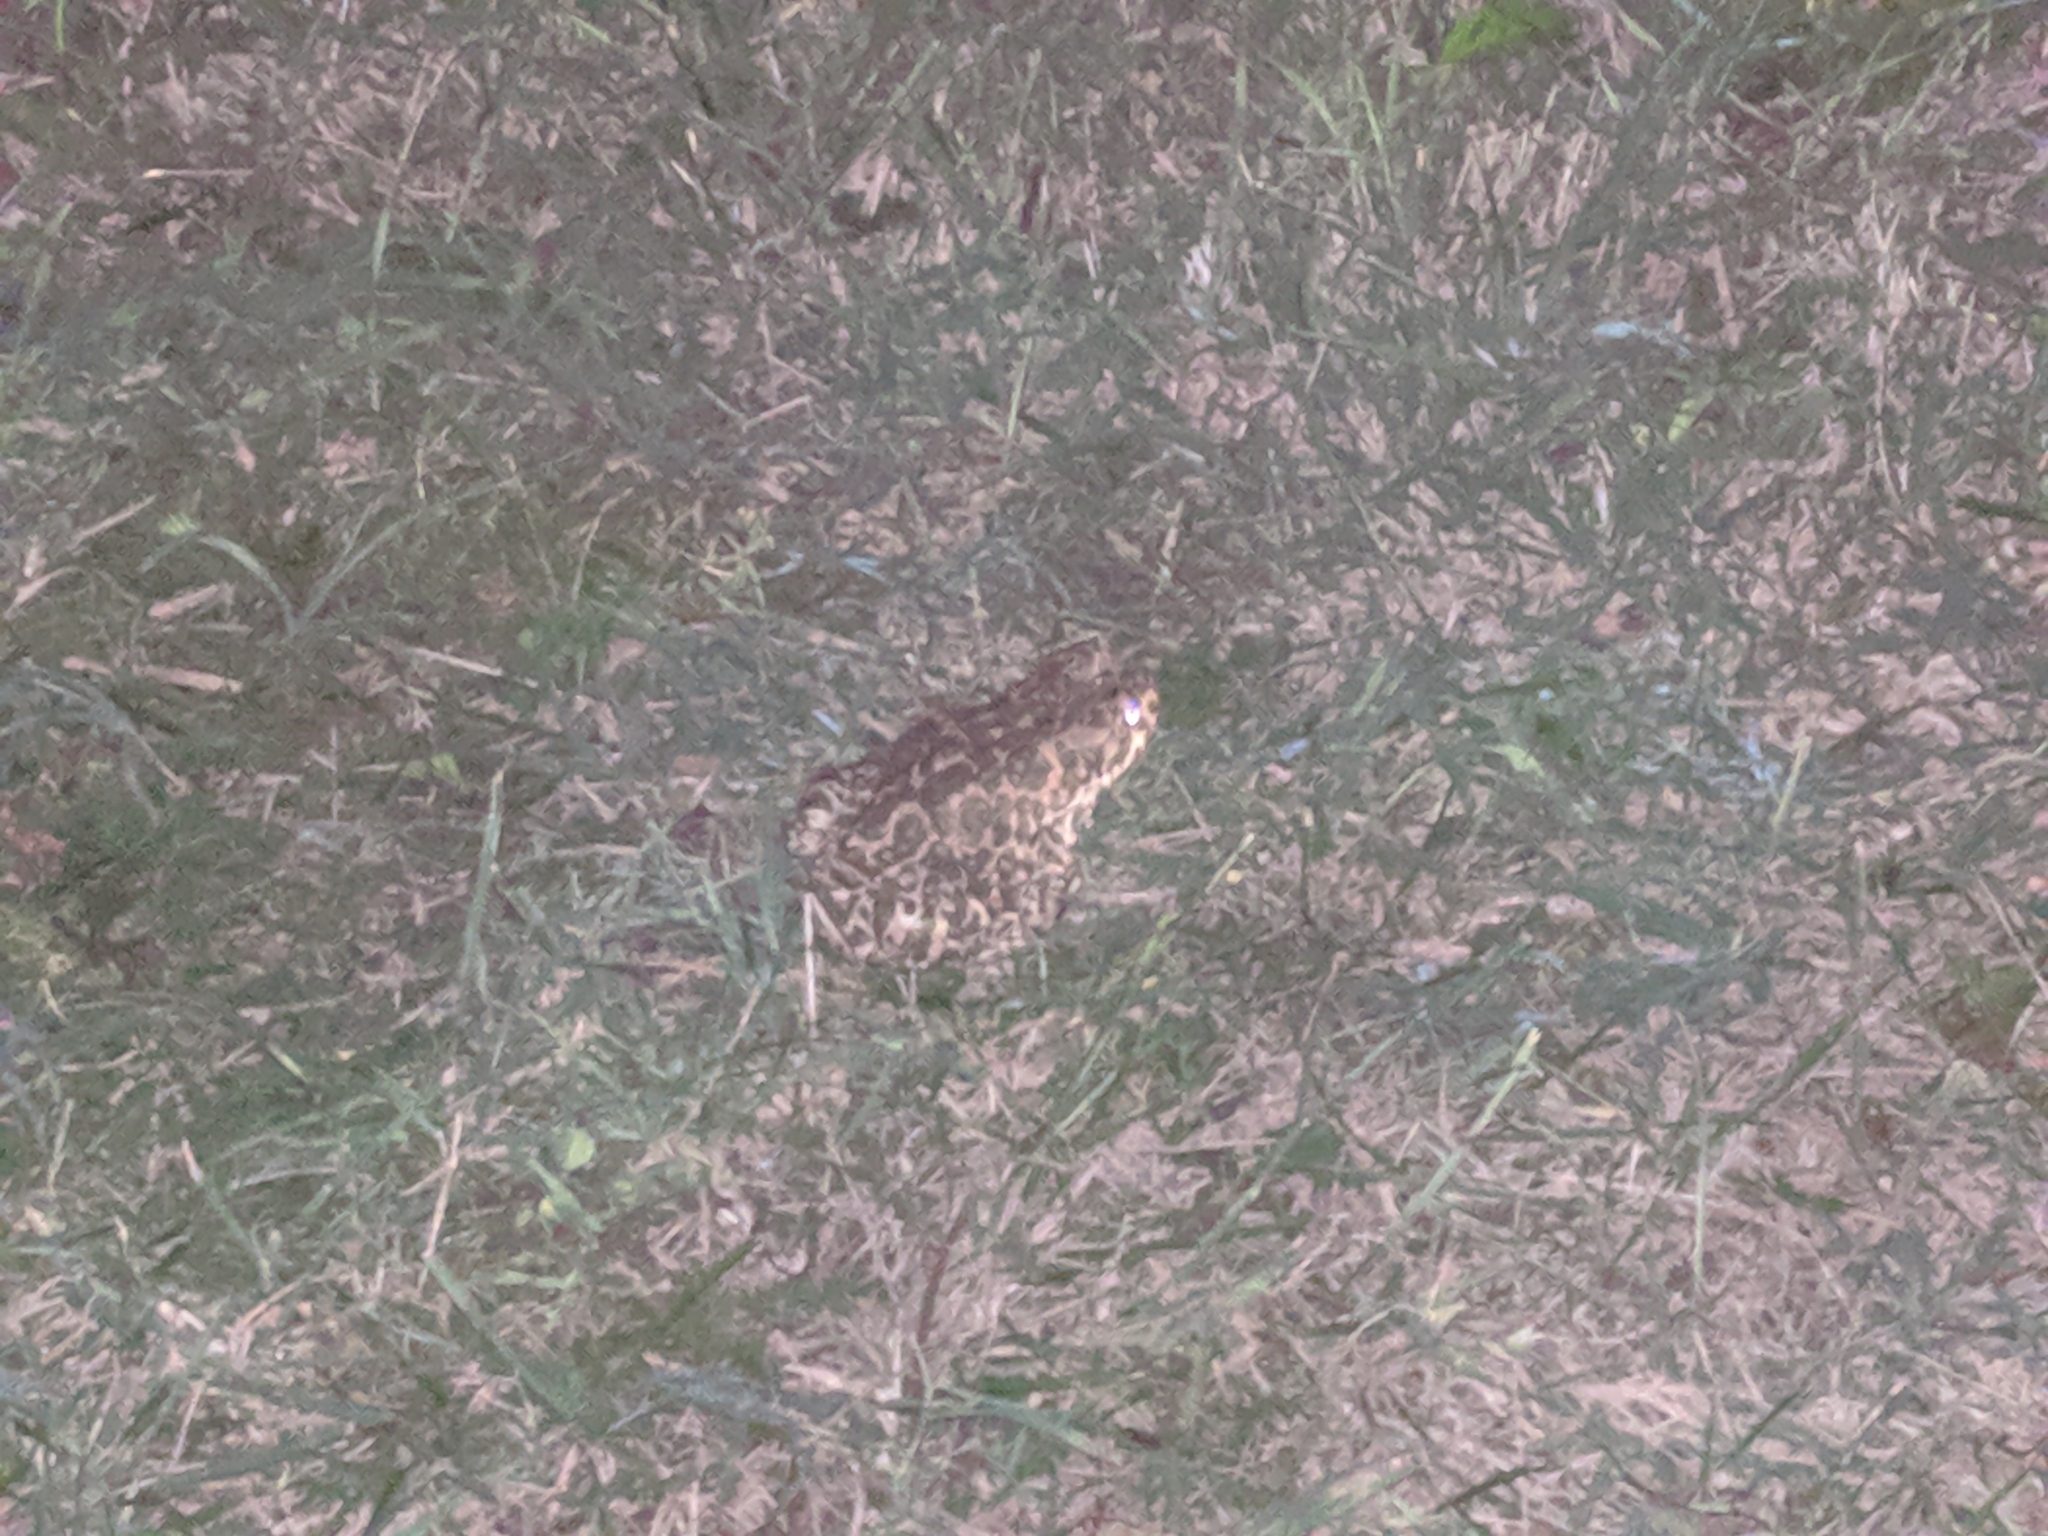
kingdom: Animalia
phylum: Chordata
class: Amphibia
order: Anura
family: Bufonidae
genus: Bufotes
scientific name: Bufotes viridis
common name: European green toad
